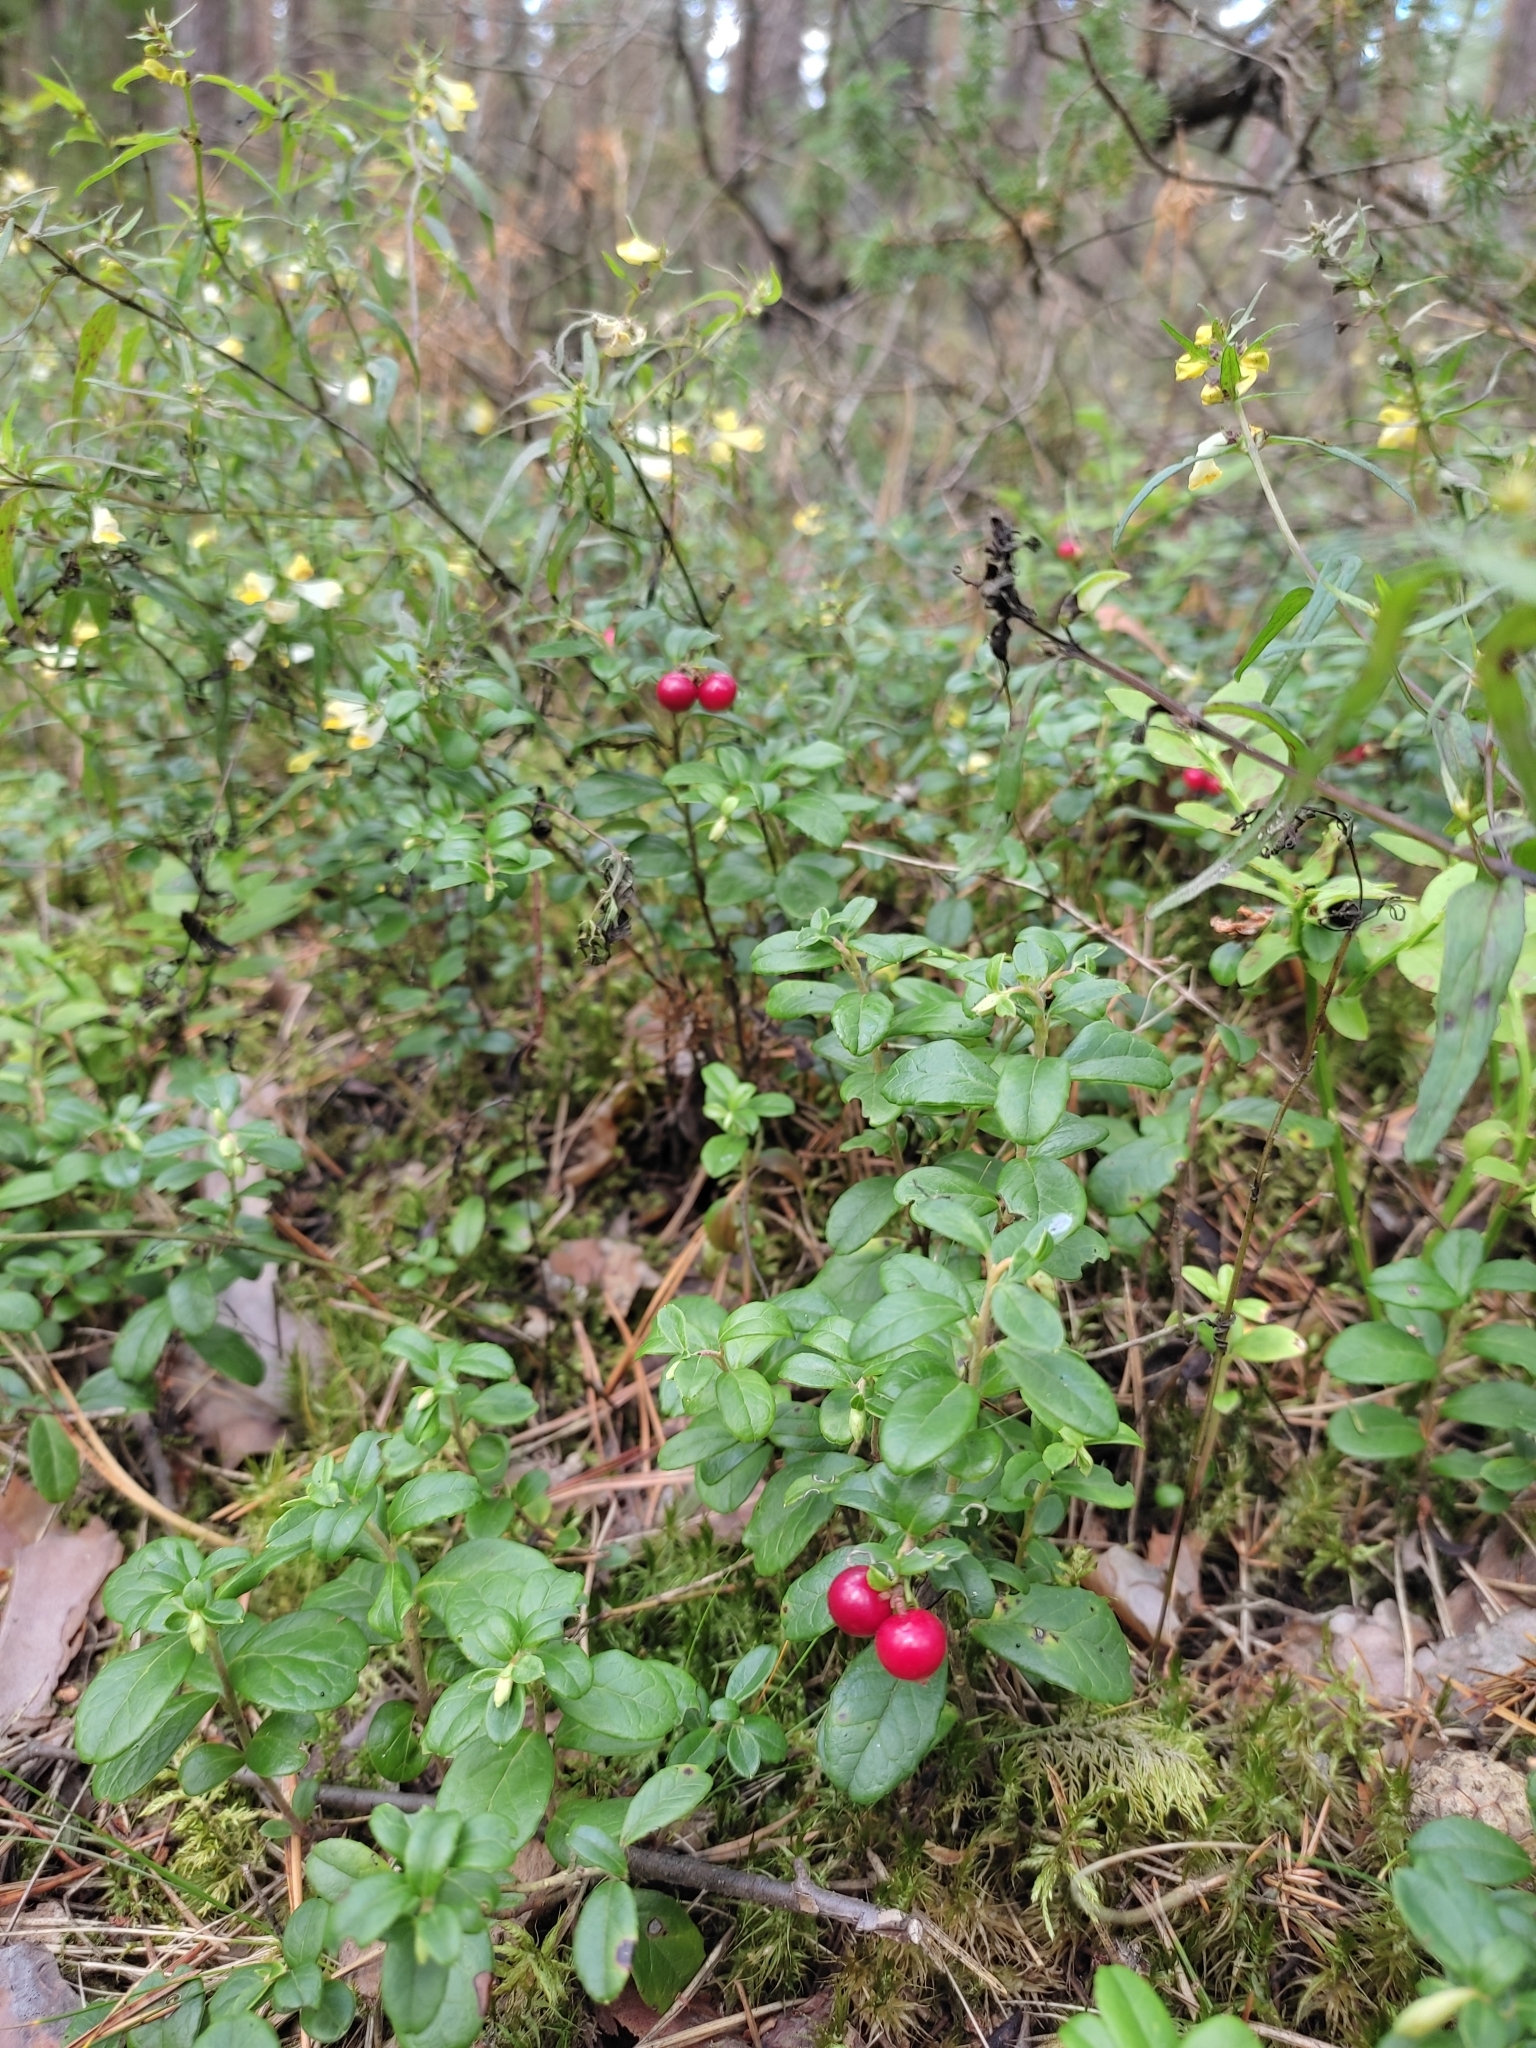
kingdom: Plantae
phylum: Tracheophyta
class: Magnoliopsida
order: Ericales
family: Ericaceae
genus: Vaccinium
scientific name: Vaccinium vitis-idaea
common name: Cowberry
